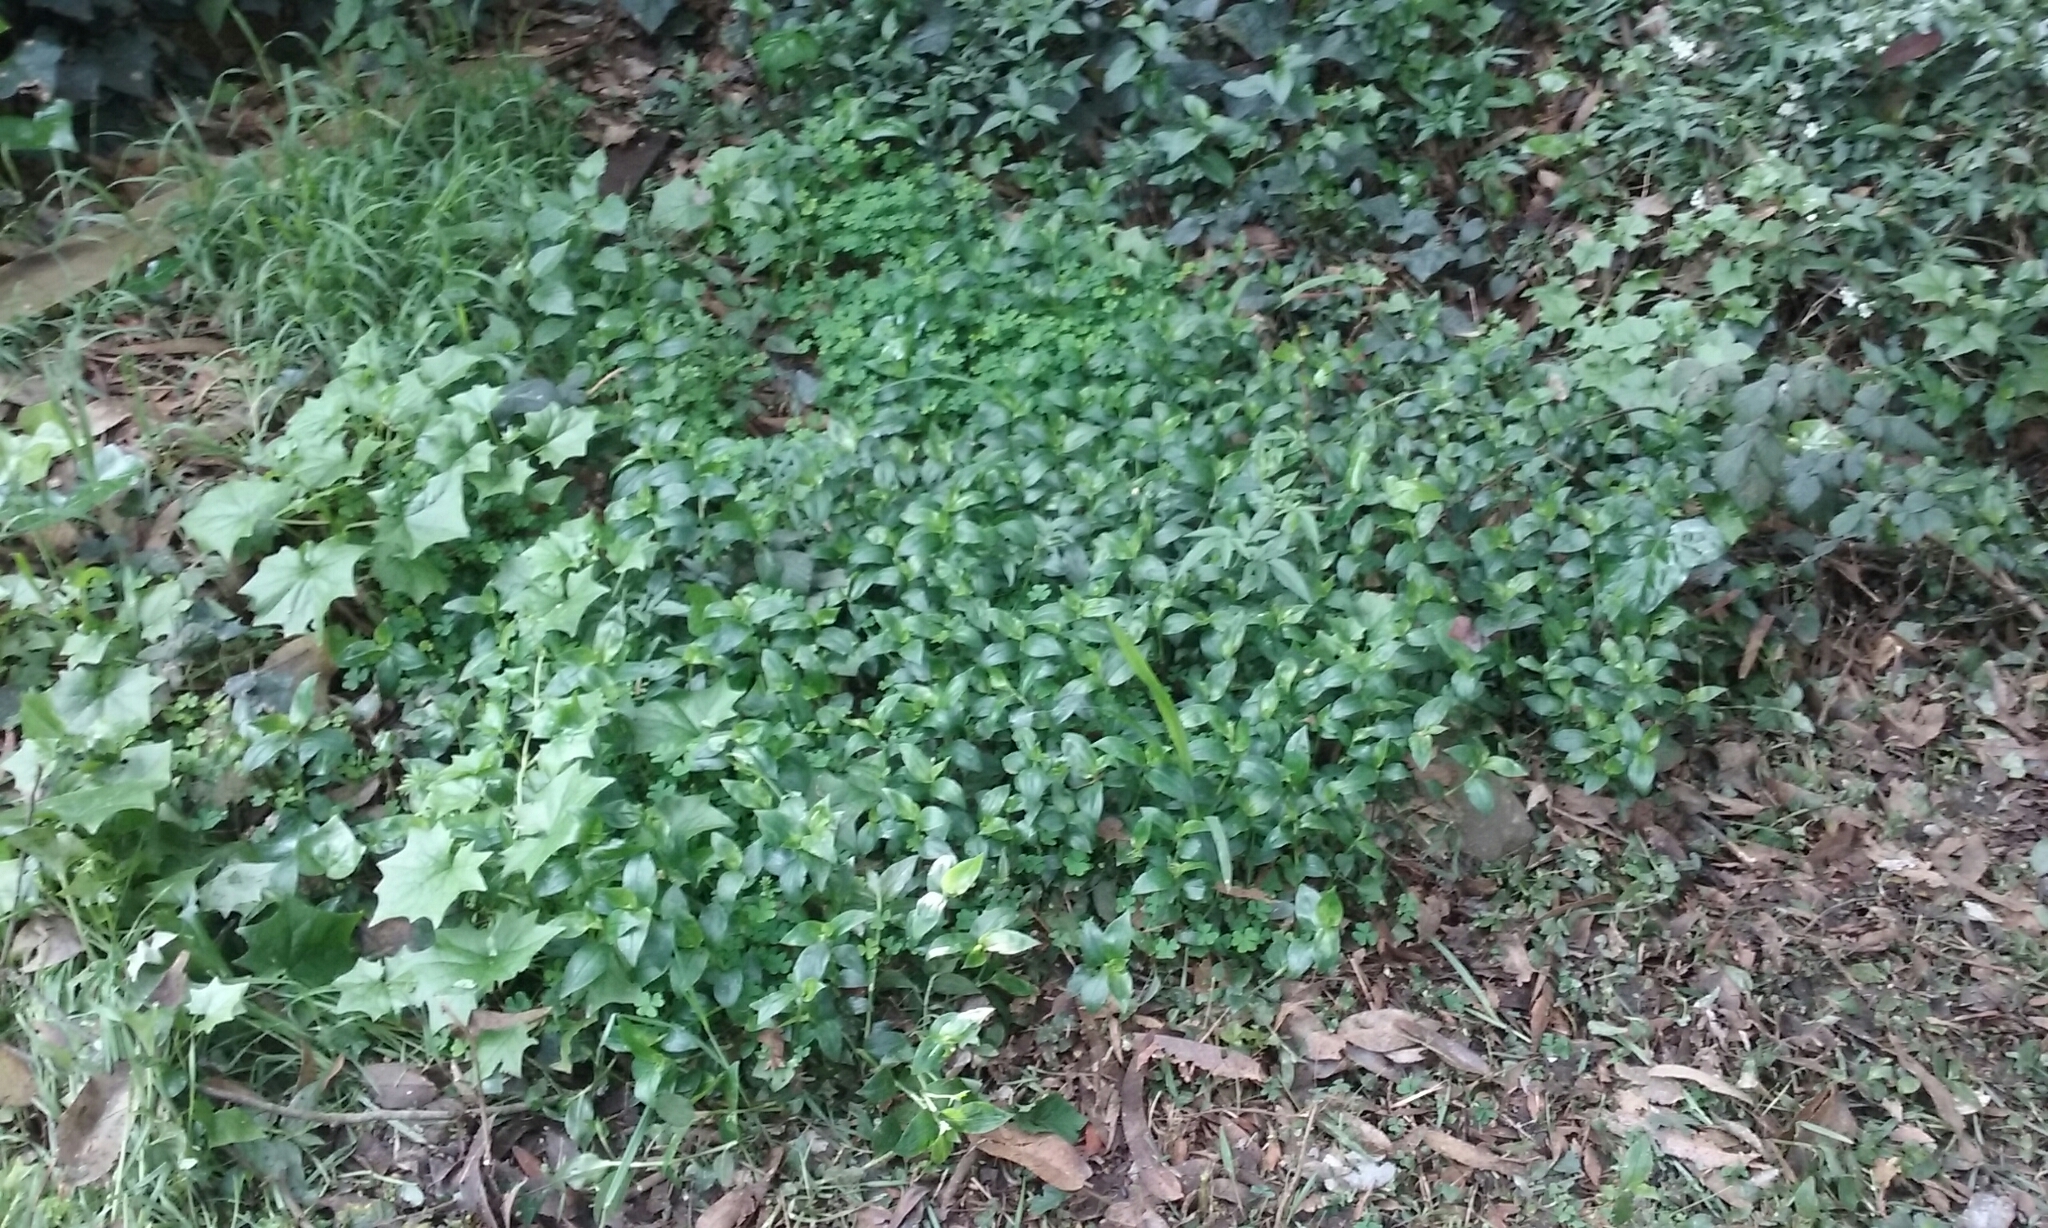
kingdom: Plantae
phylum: Tracheophyta
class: Liliopsida
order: Commelinales
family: Commelinaceae
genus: Tradescantia
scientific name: Tradescantia fluminensis
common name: Wandering-jew
